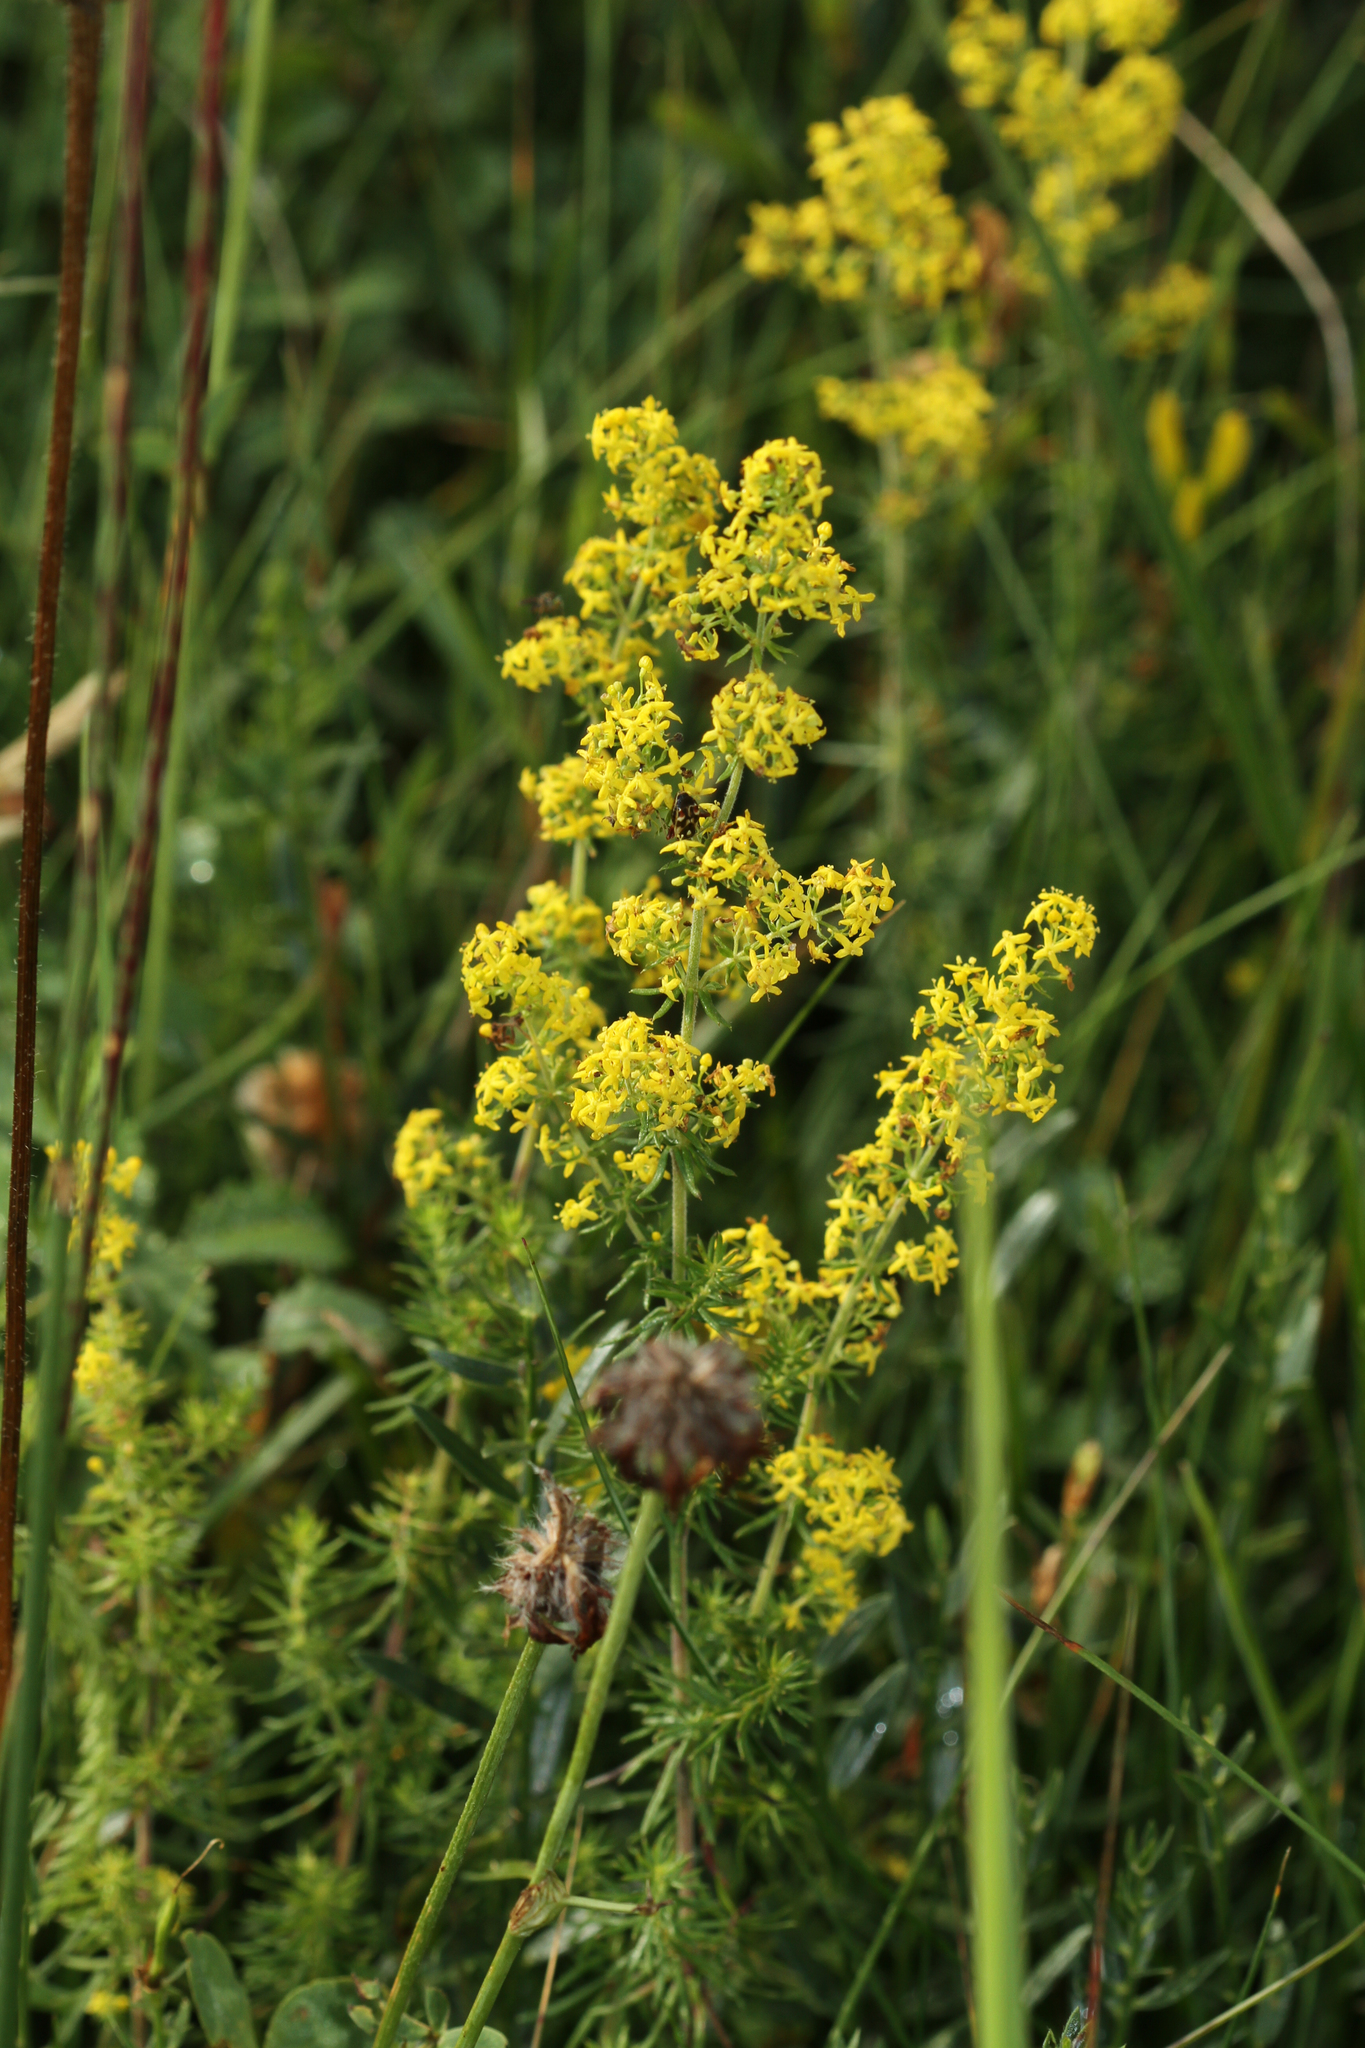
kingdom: Plantae
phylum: Tracheophyta
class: Magnoliopsida
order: Gentianales
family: Rubiaceae
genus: Galium
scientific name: Galium verum
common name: Lady's bedstraw
